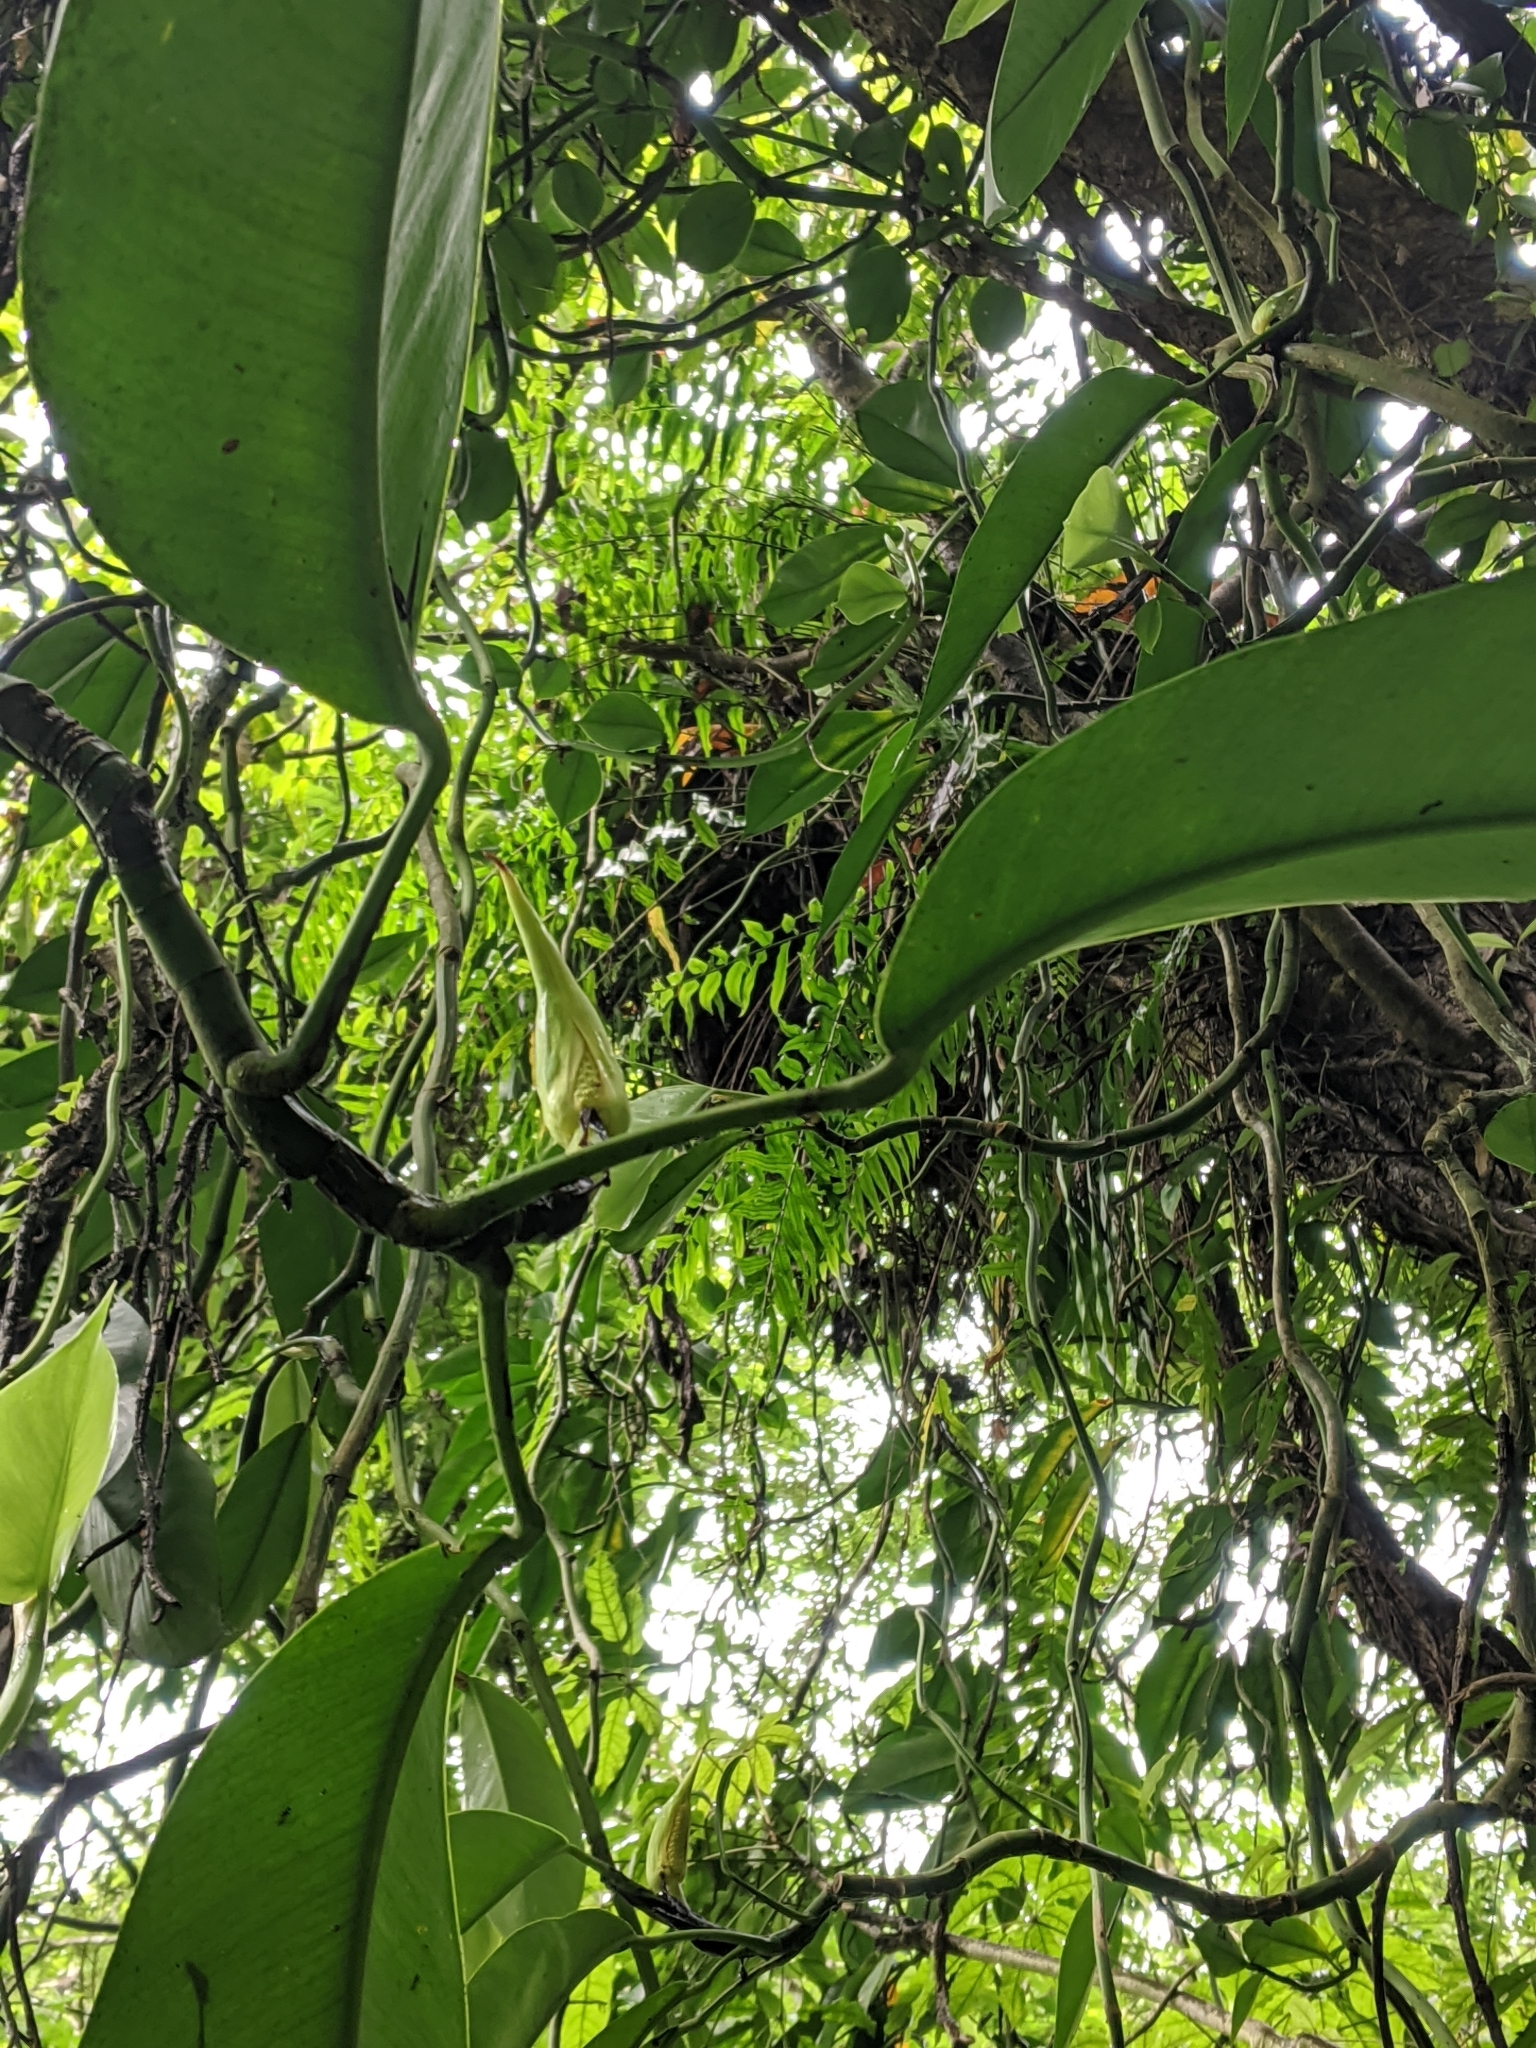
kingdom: Plantae
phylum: Tracheophyta
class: Liliopsida
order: Alismatales
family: Araceae
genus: Rhaphidophora
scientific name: Rhaphidophora hongkongensis
